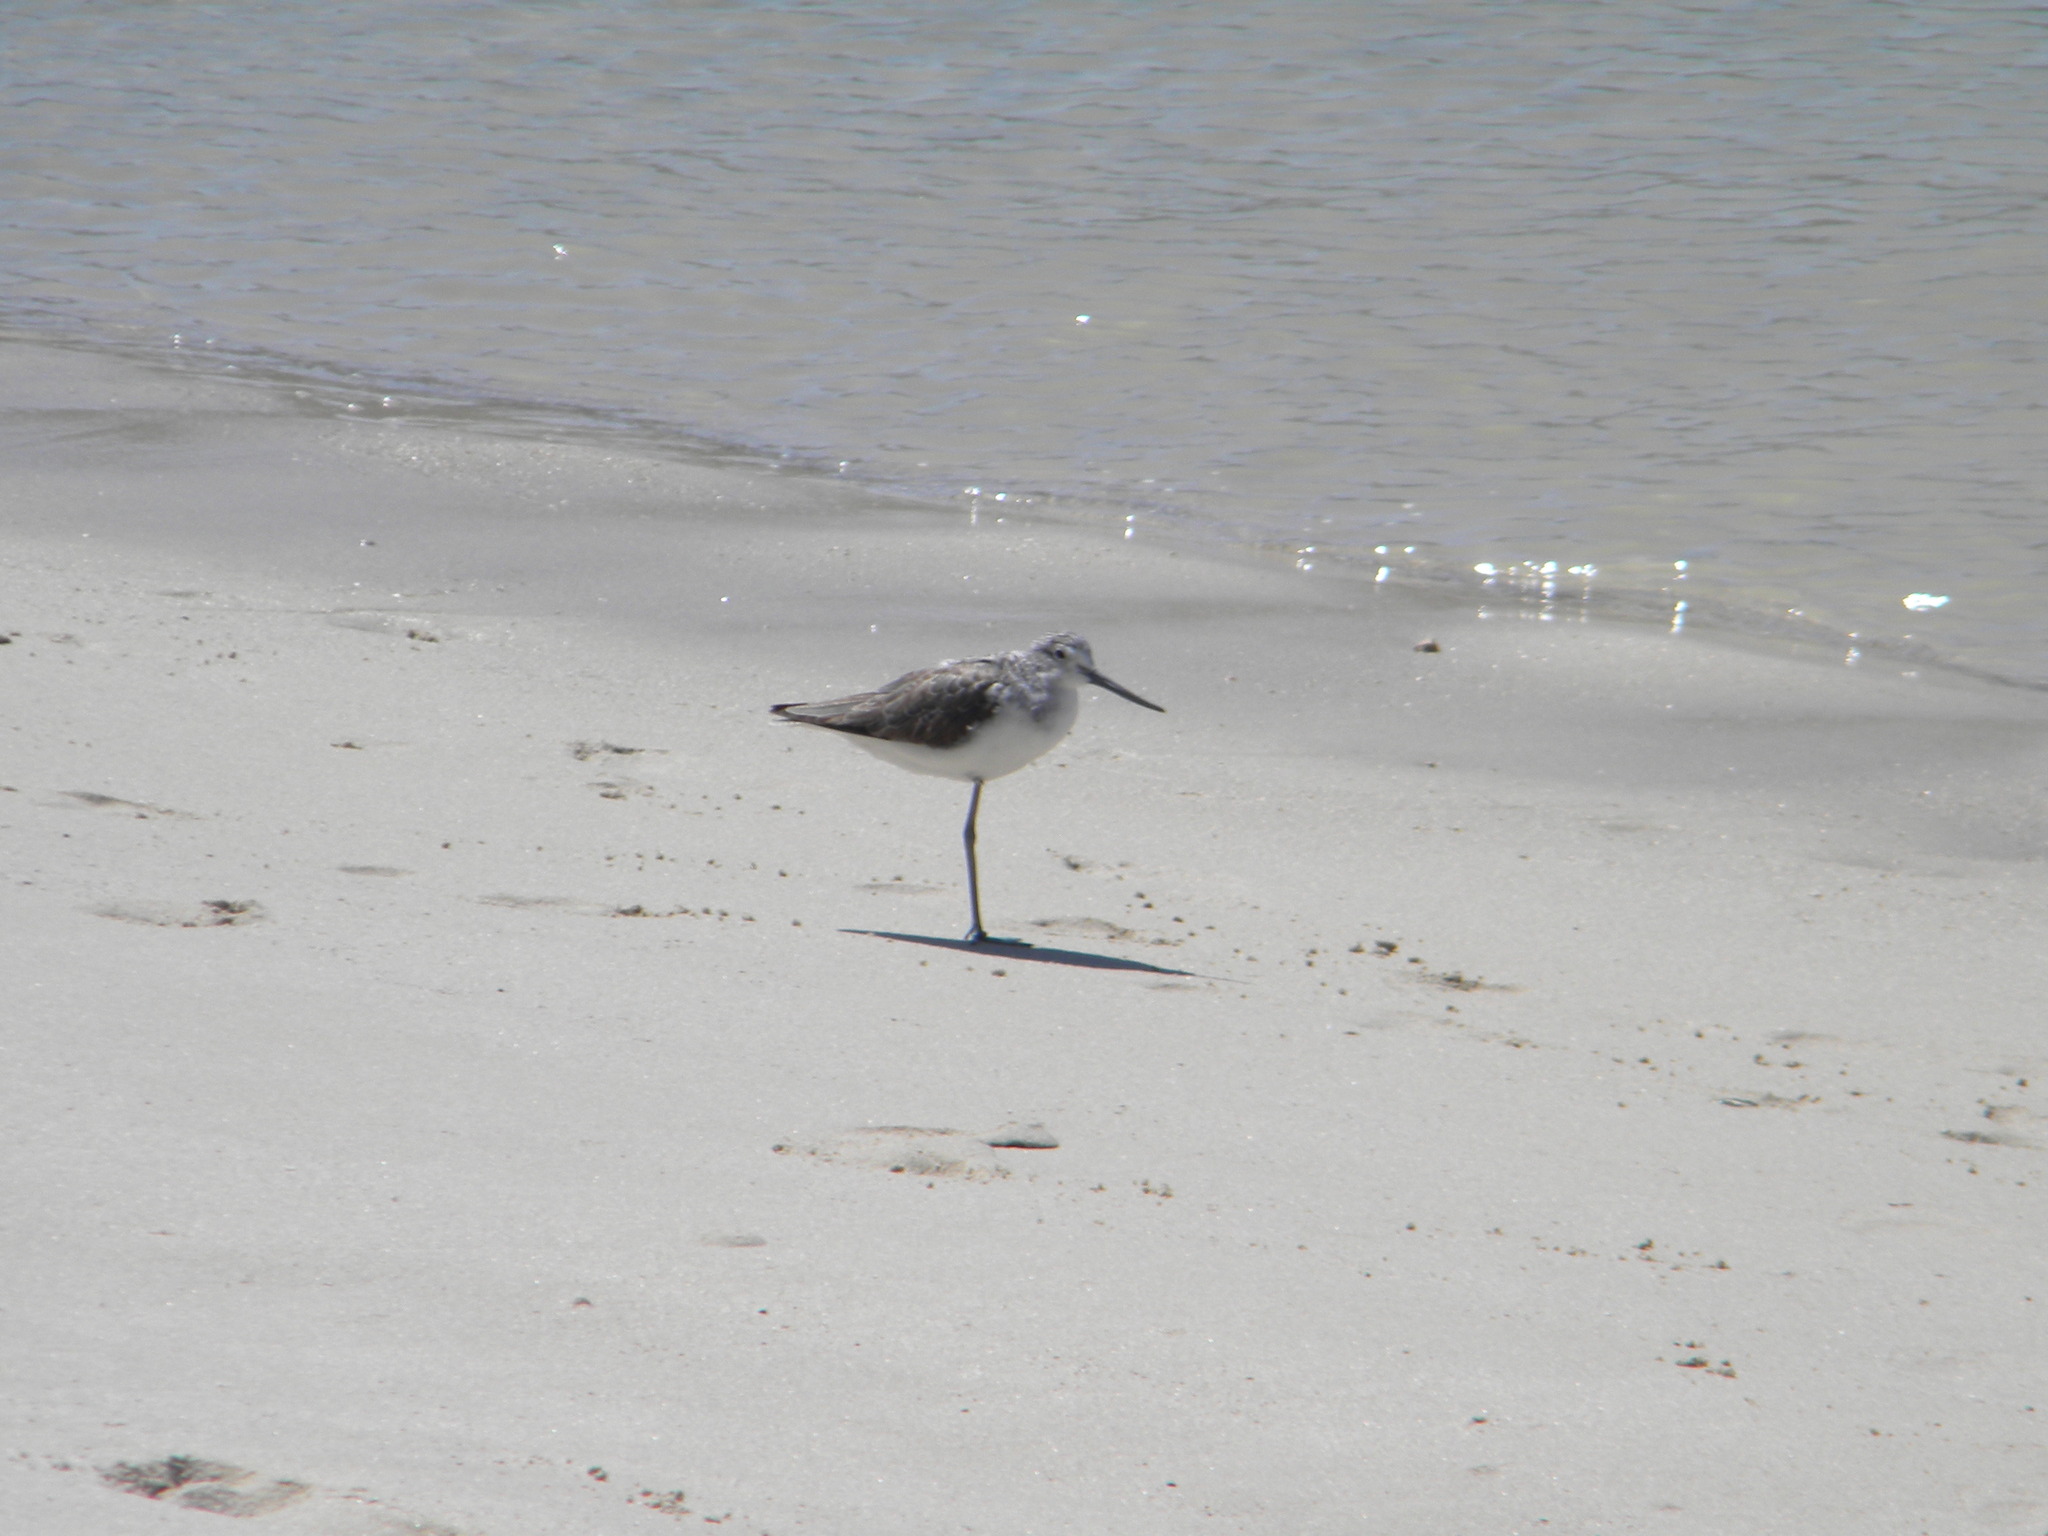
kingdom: Animalia
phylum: Chordata
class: Aves
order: Charadriiformes
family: Scolopacidae
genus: Tringa
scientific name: Tringa nebularia
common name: Common greenshank
